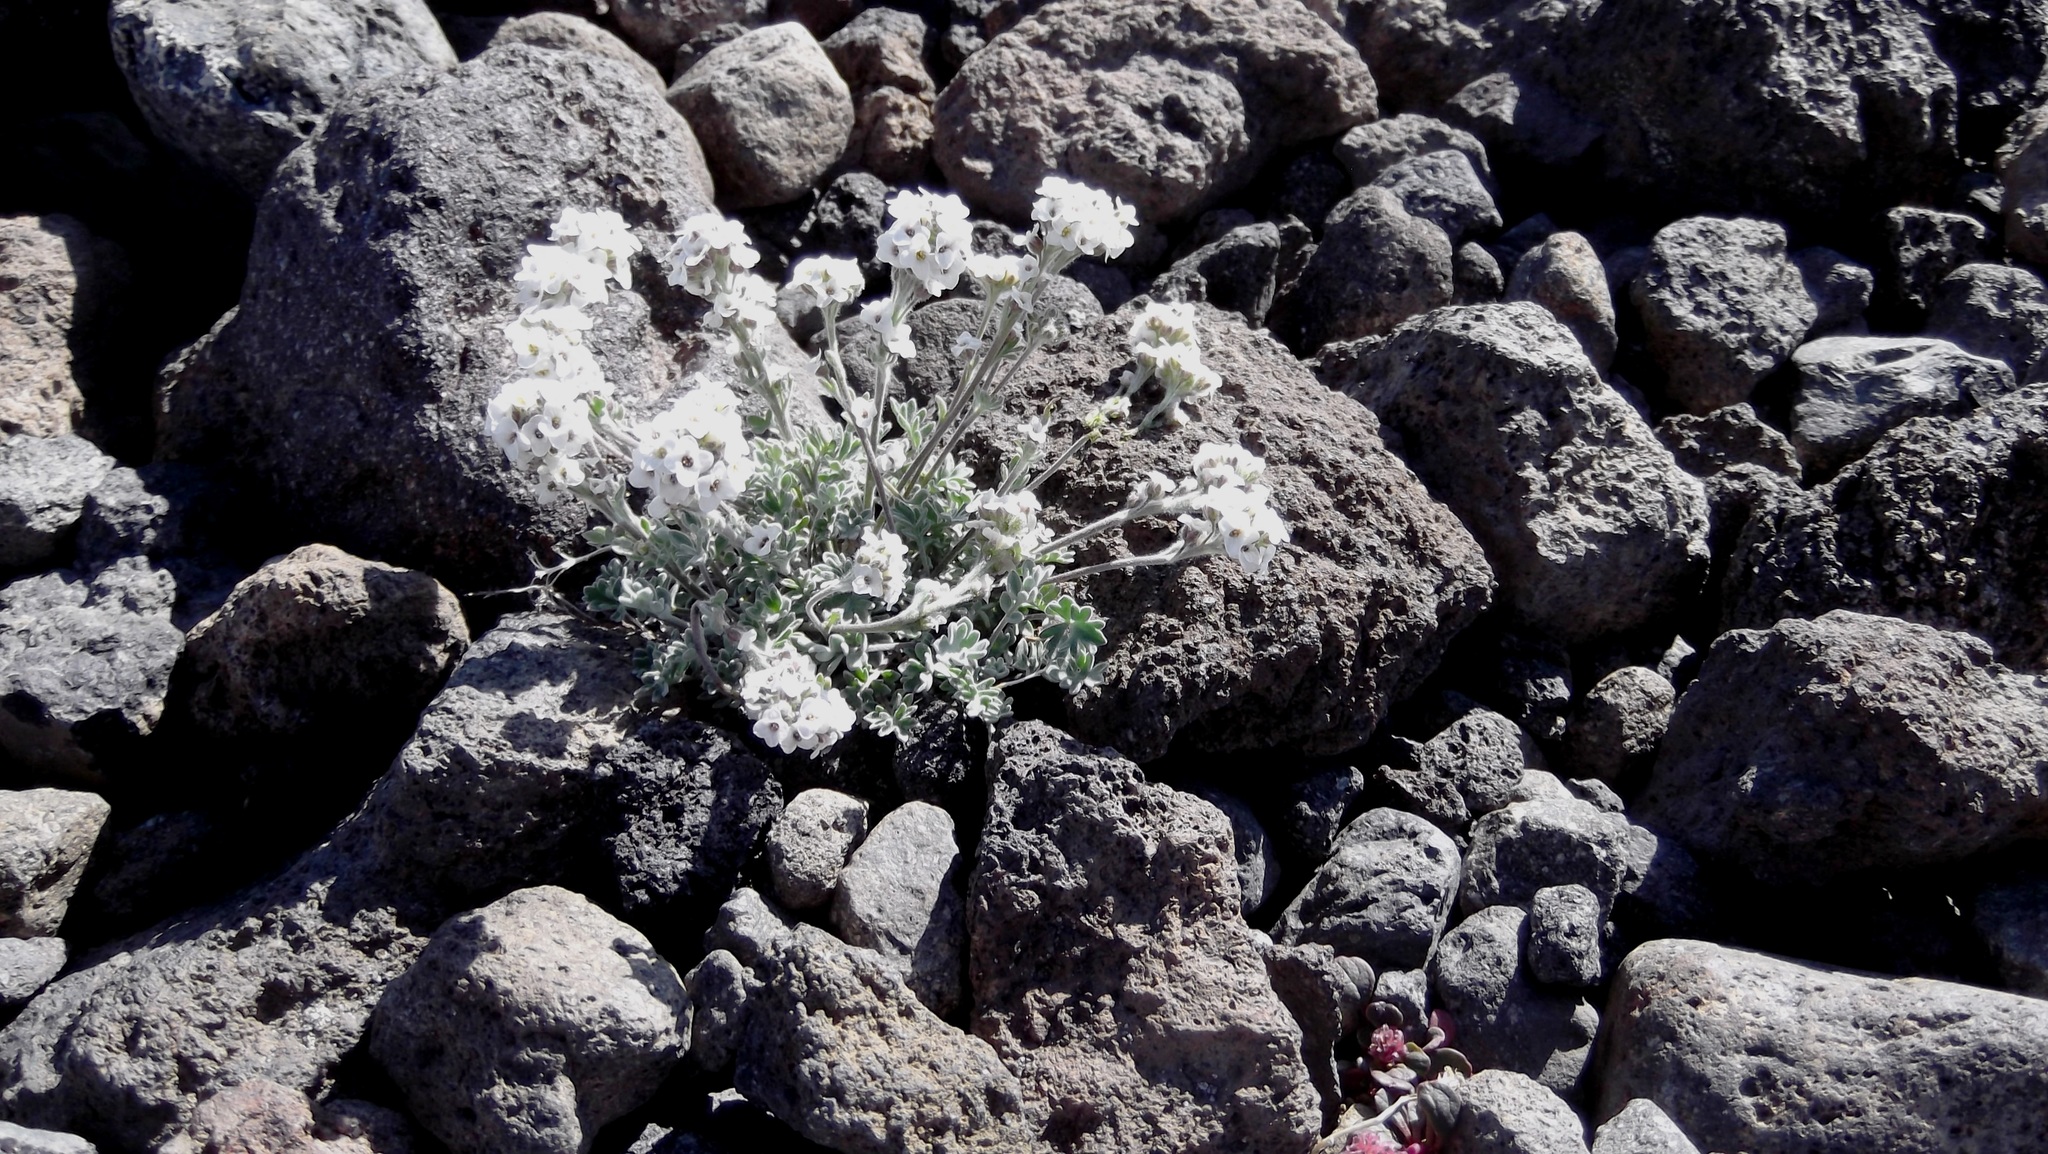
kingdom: Plantae
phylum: Tracheophyta
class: Magnoliopsida
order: Brassicales
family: Brassicaceae
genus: Smelowskia
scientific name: Smelowskia americana
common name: American false candytuft
